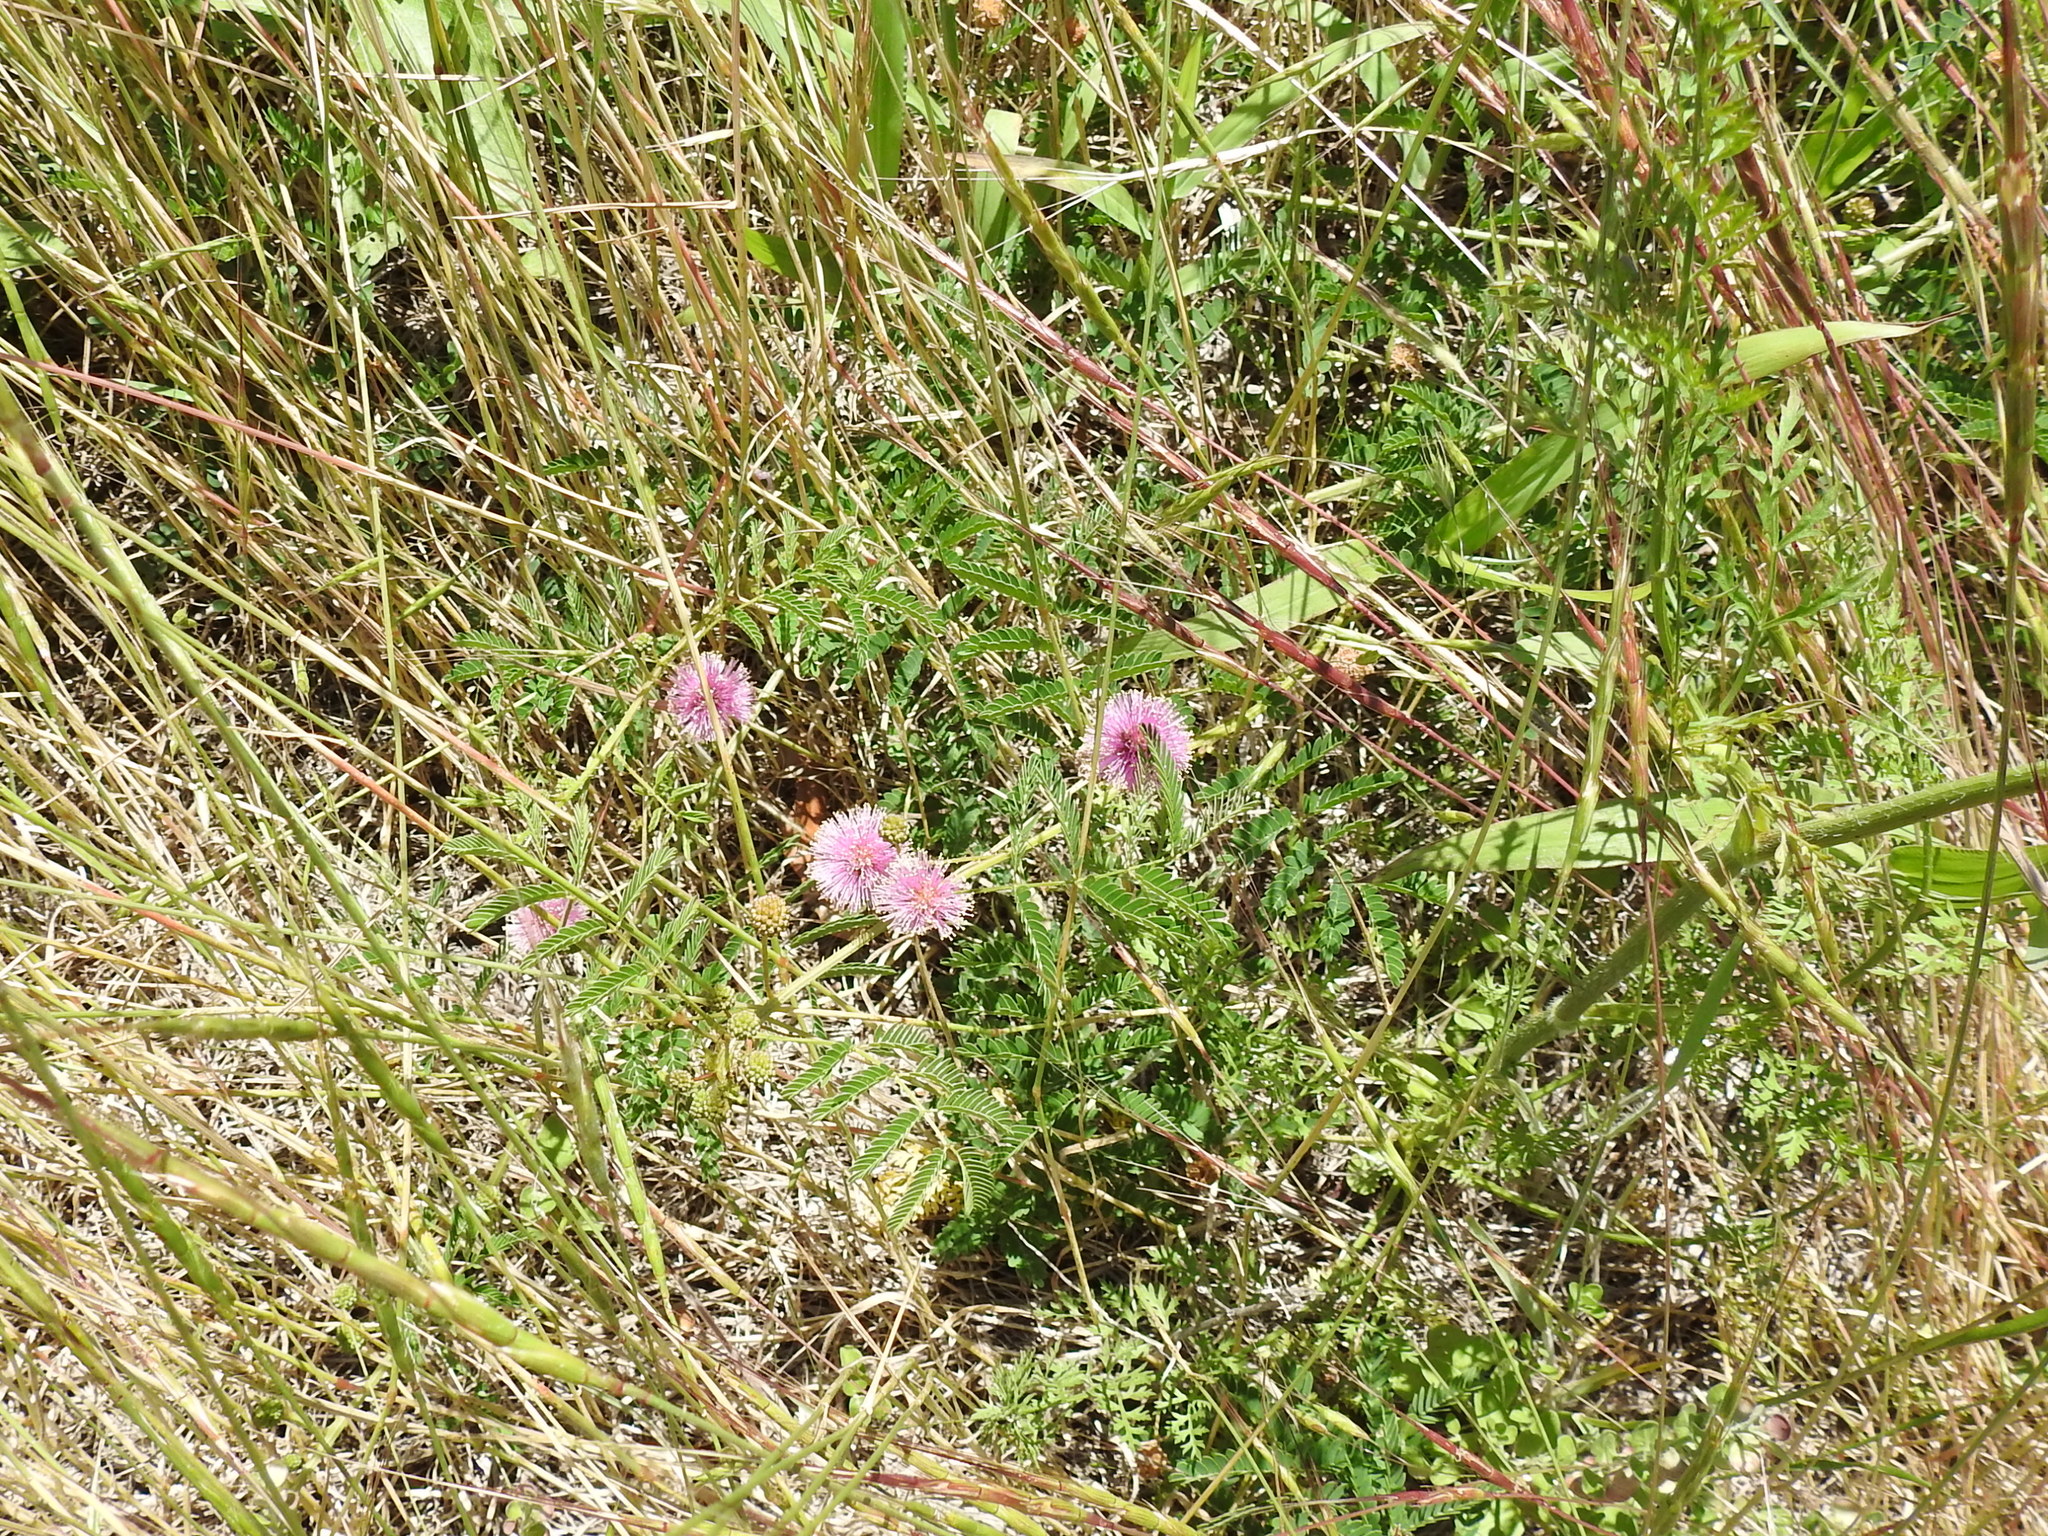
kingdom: Plantae
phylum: Tracheophyta
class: Magnoliopsida
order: Fabales
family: Fabaceae
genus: Mimosa
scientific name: Mimosa quadrivalvis
